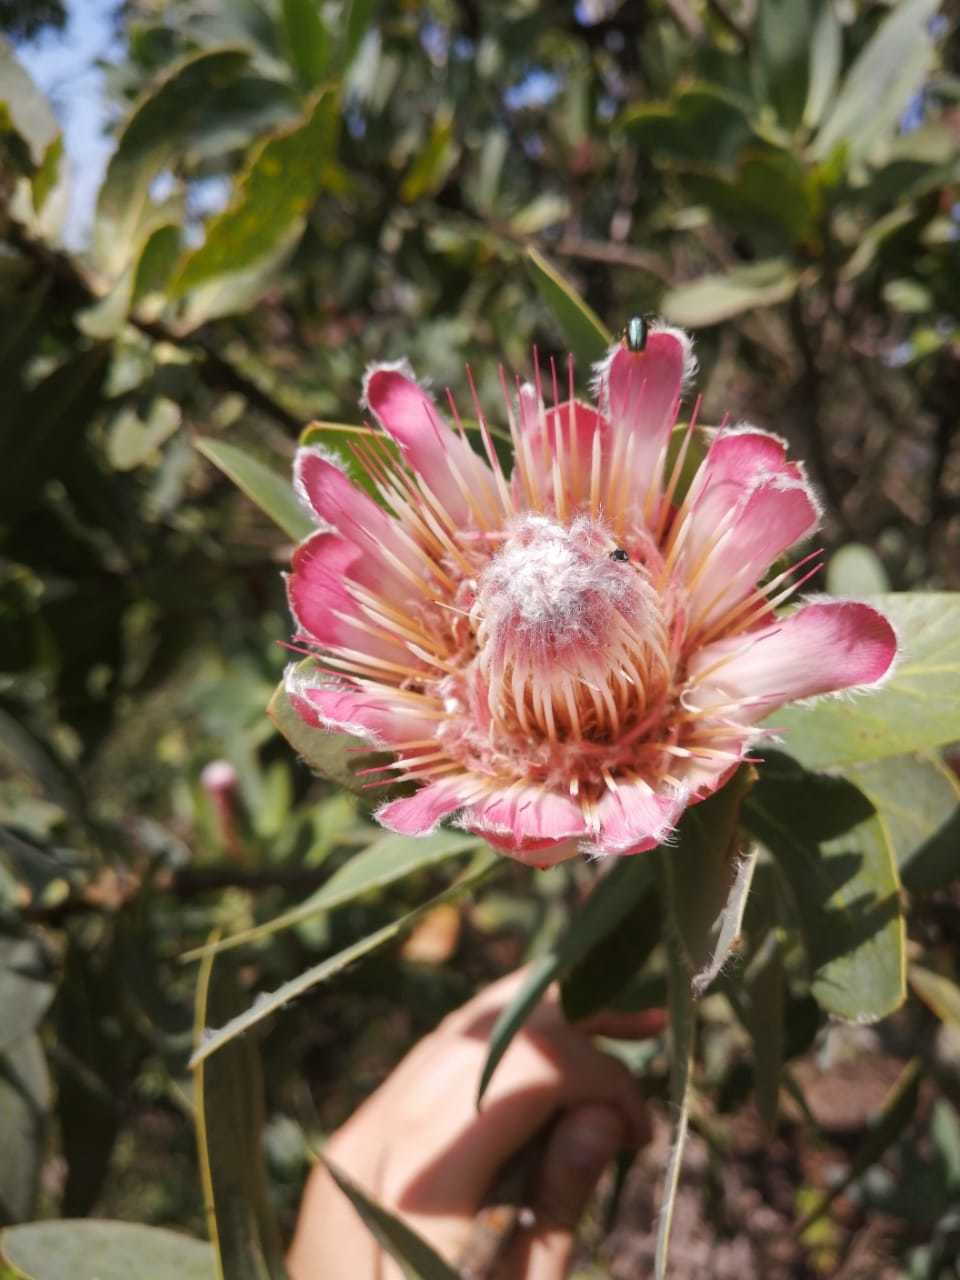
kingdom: Plantae
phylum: Tracheophyta
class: Magnoliopsida
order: Proteales
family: Proteaceae
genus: Protea
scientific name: Protea subvestita
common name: Lip-flower sugarbush
